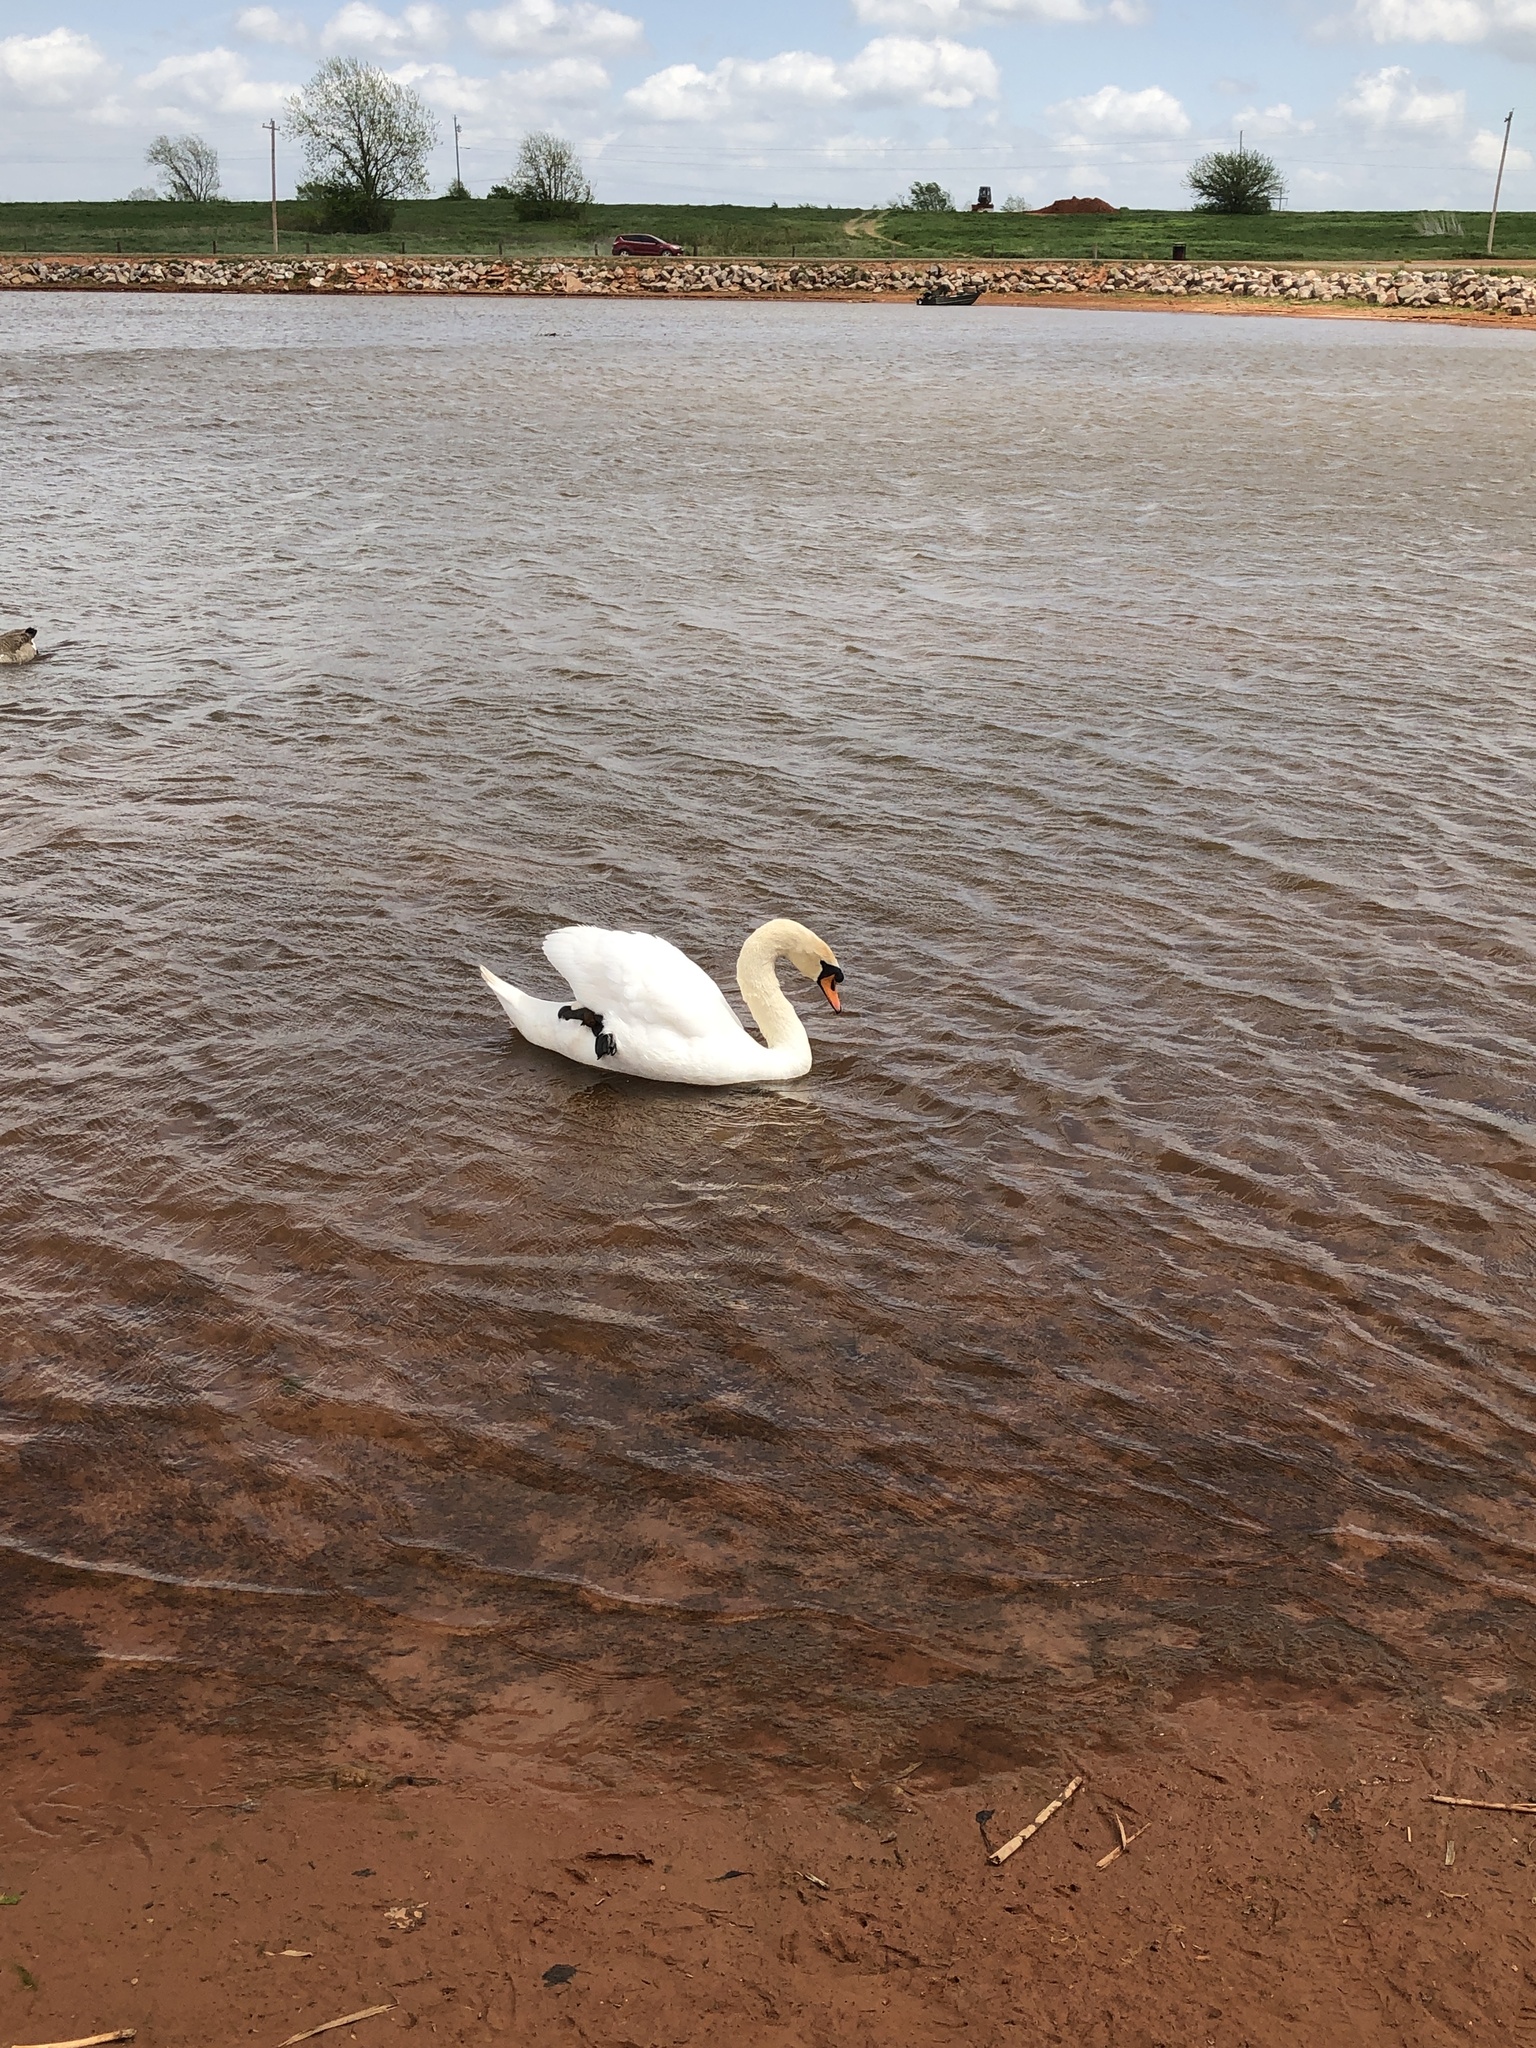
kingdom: Animalia
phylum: Chordata
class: Aves
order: Anseriformes
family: Anatidae
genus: Cygnus
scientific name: Cygnus olor
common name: Mute swan
